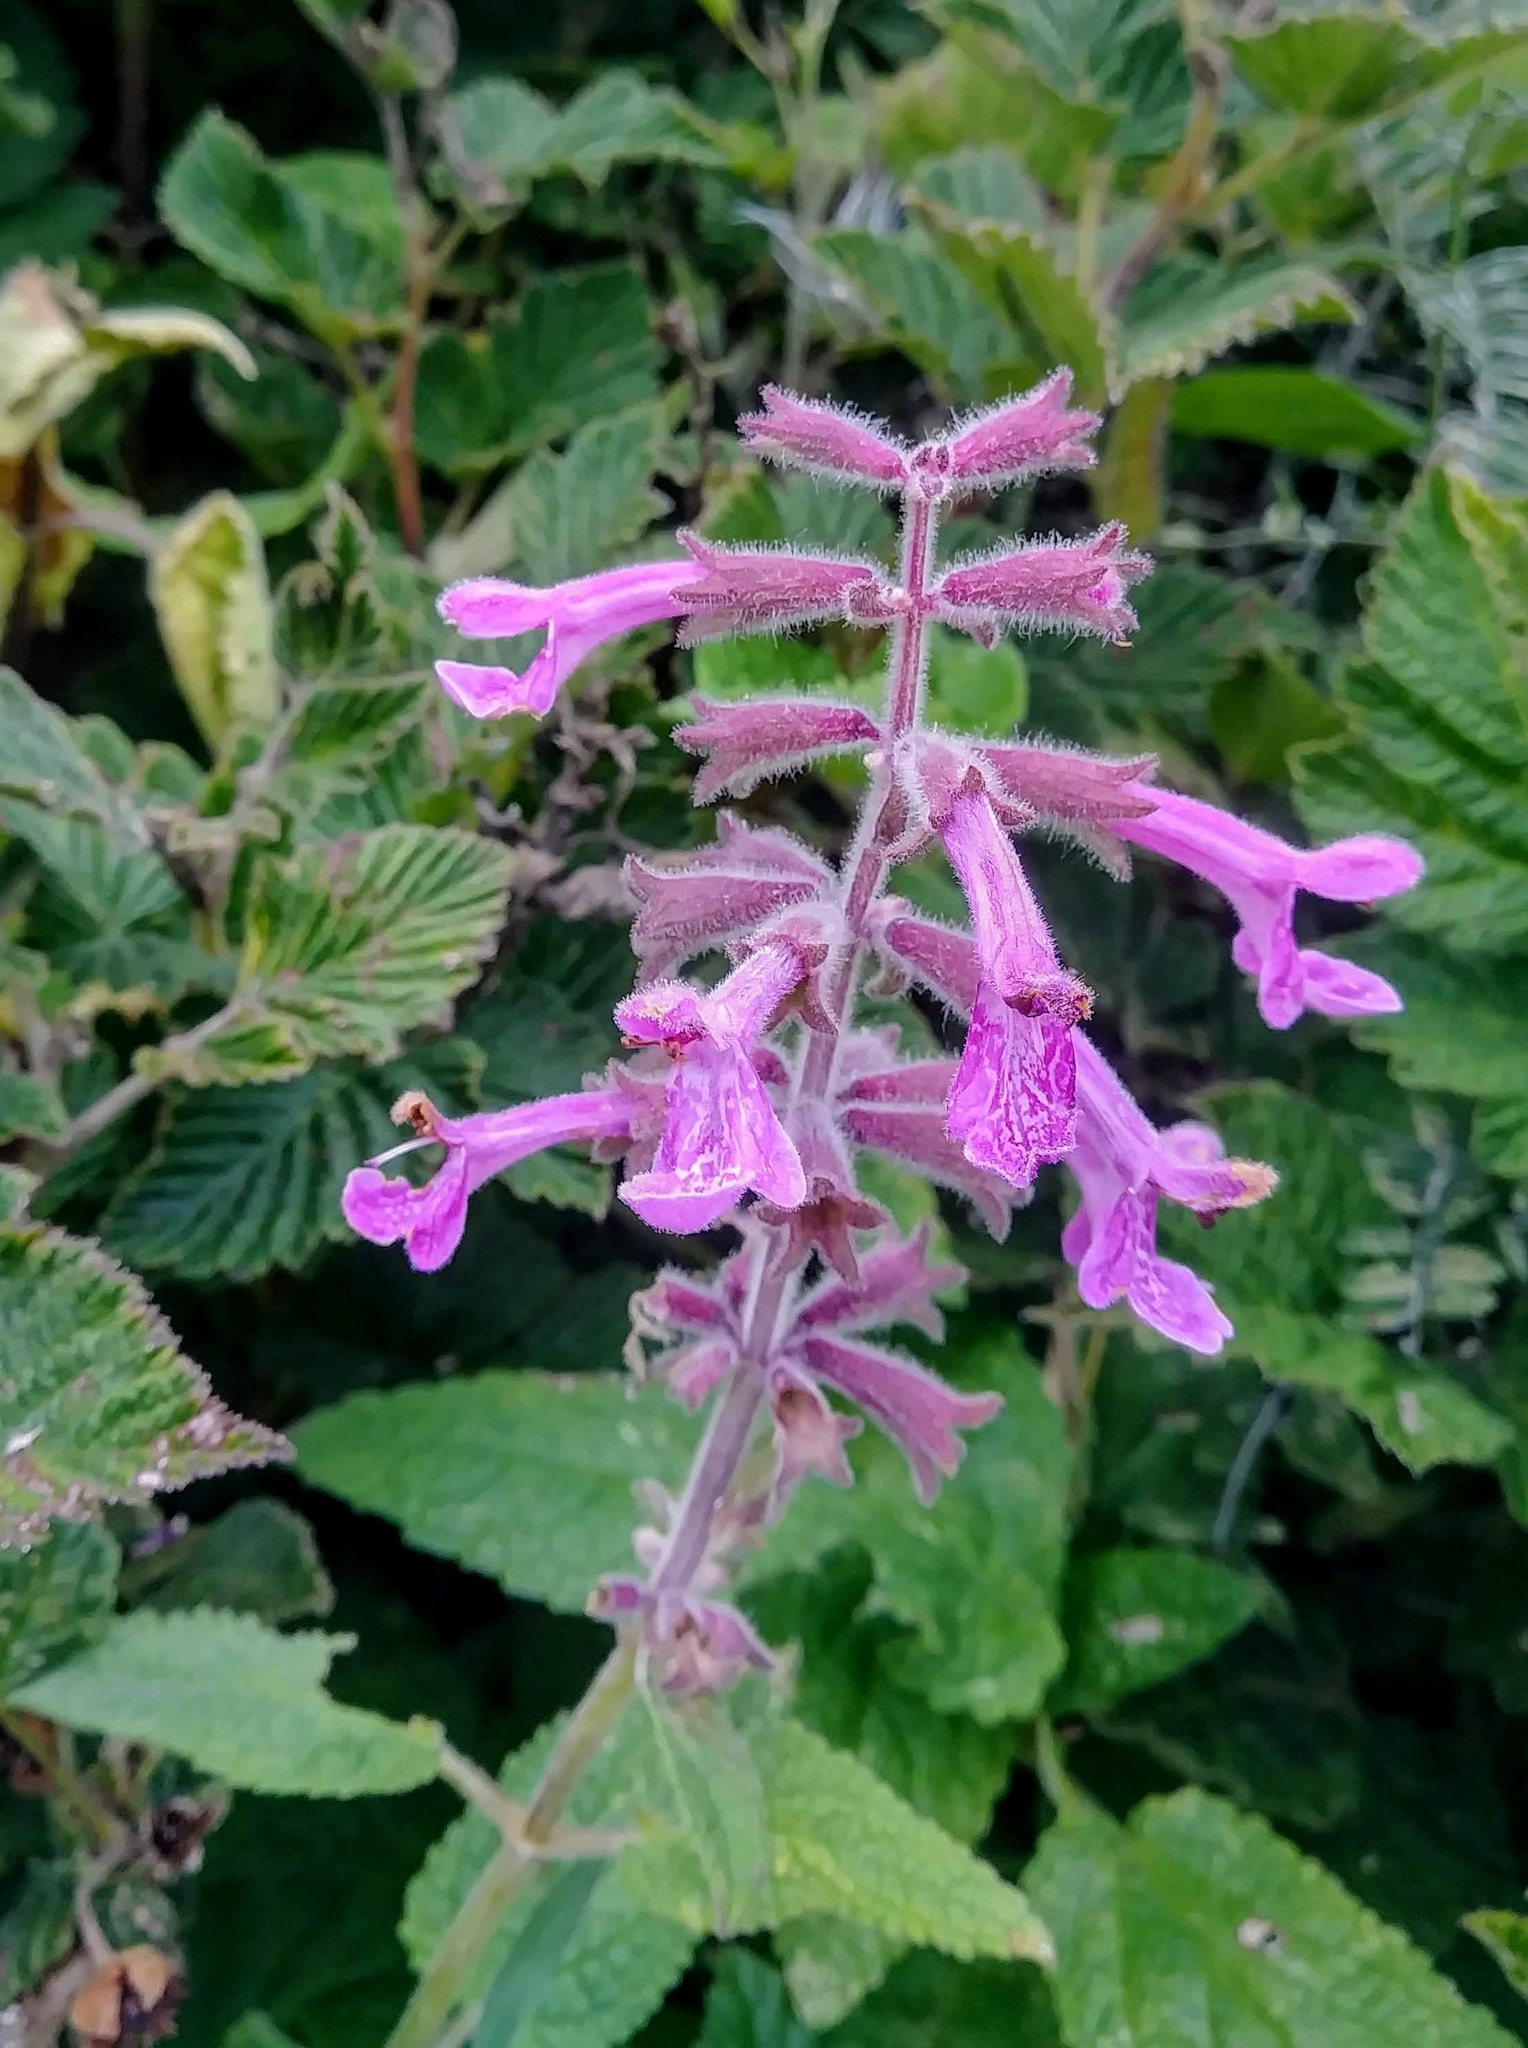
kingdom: Plantae
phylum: Tracheophyta
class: Magnoliopsida
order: Lamiales
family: Lamiaceae
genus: Stachys
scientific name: Stachys chamissonis
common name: Coastal hedge-nettle
